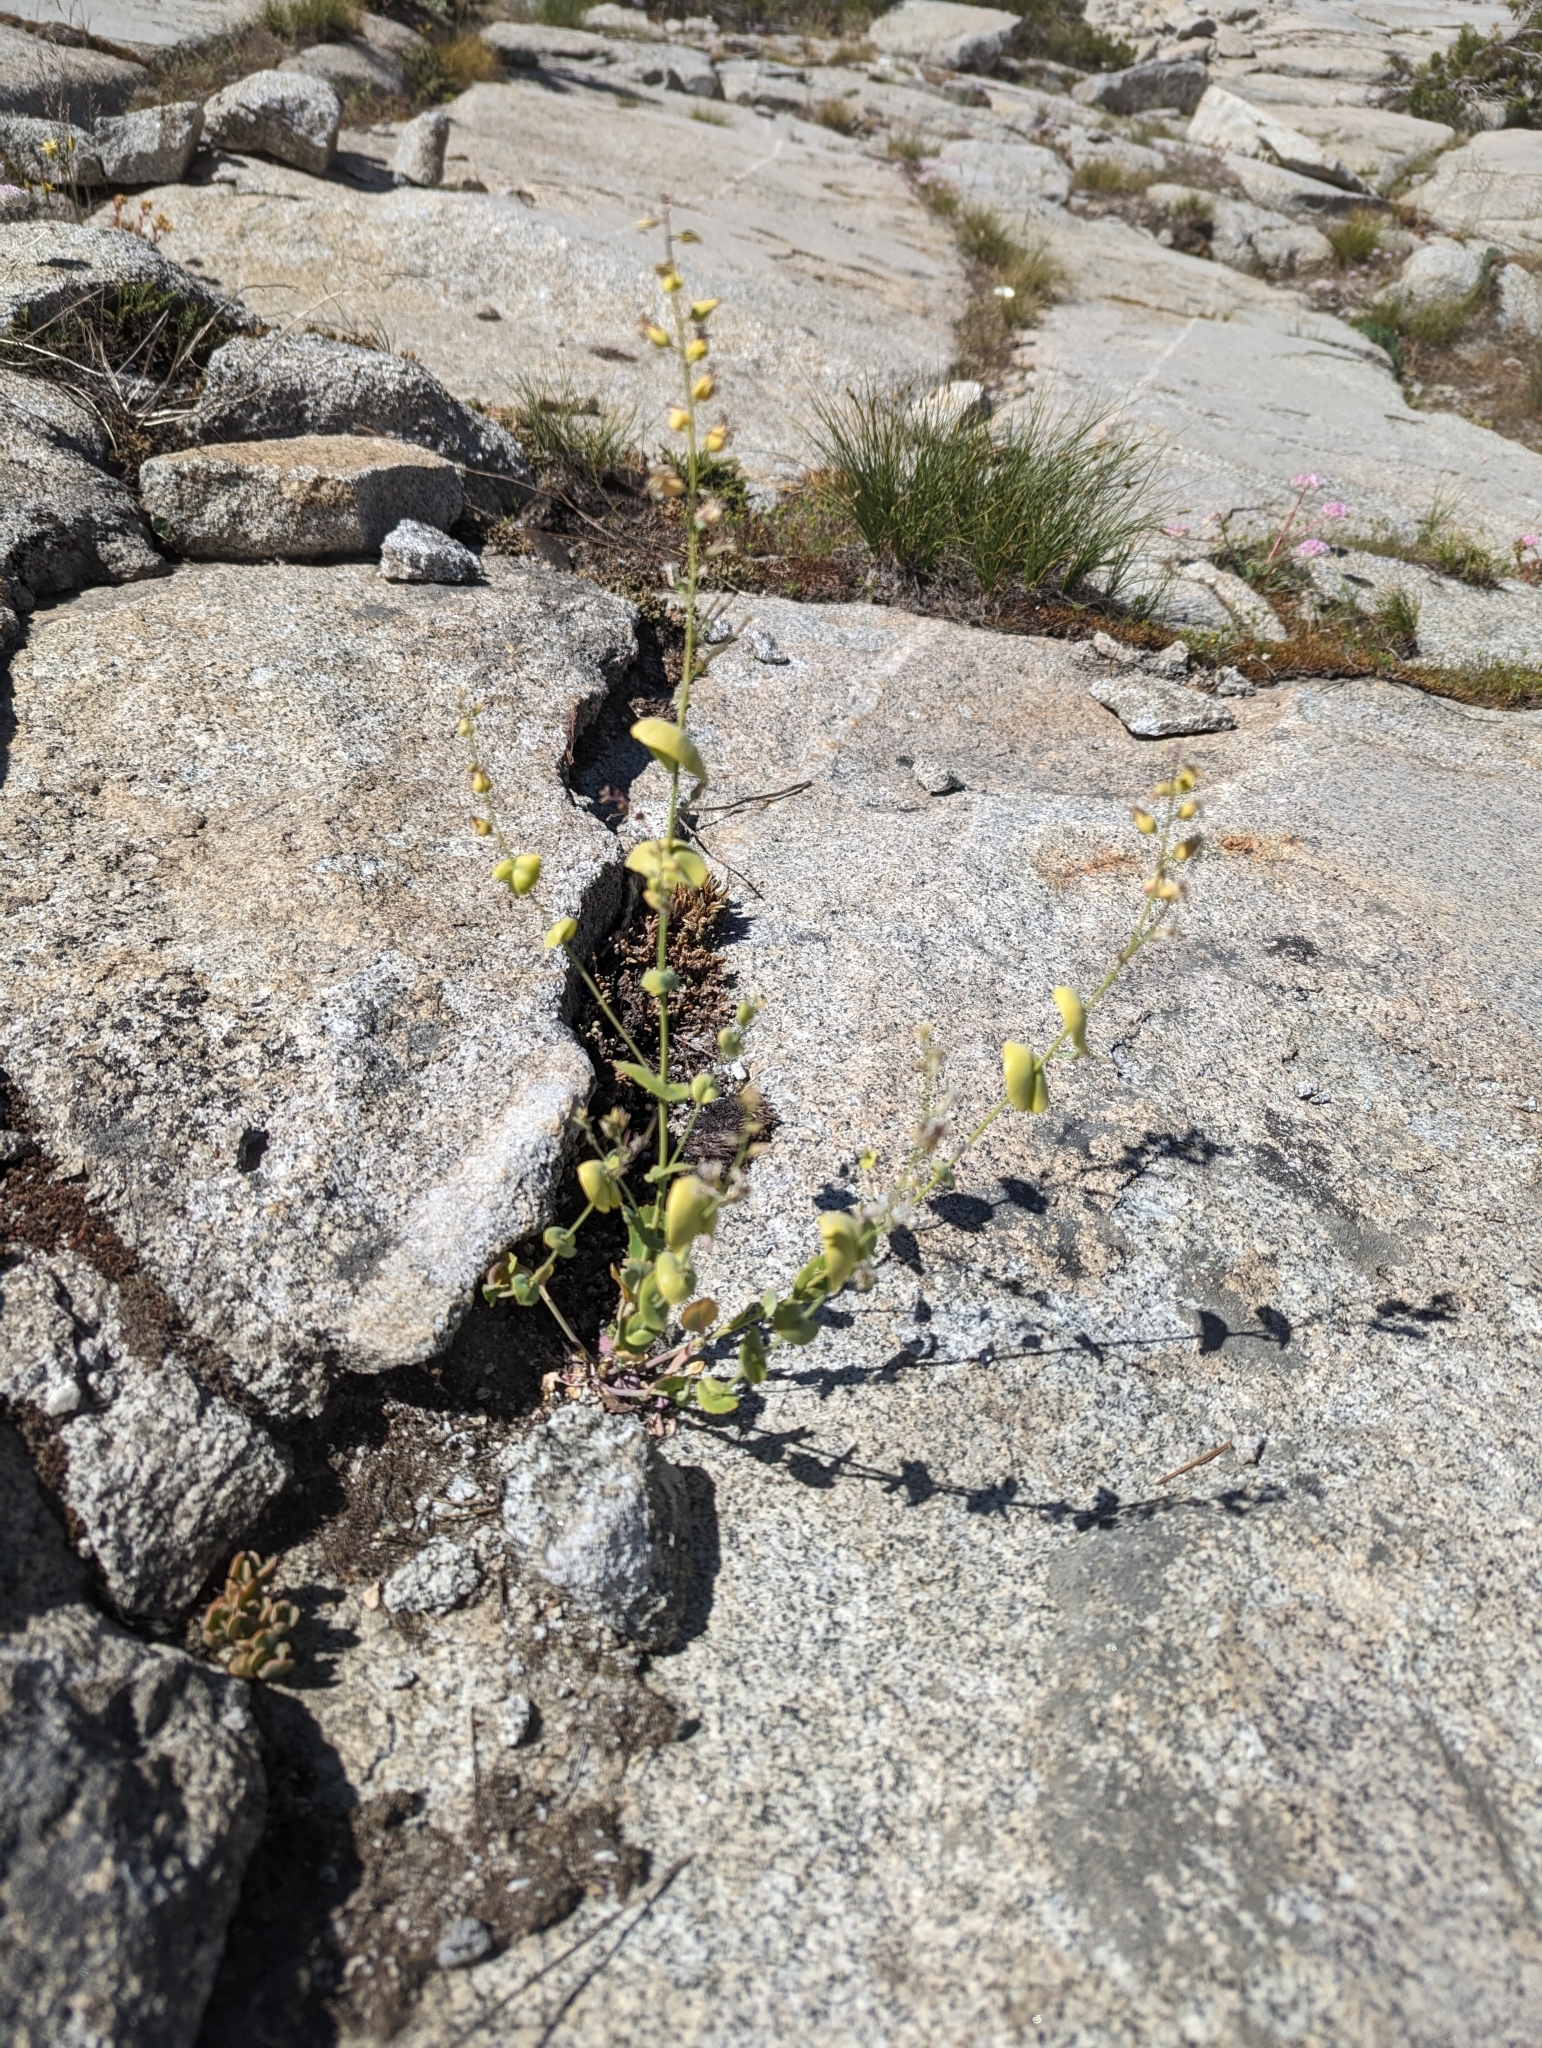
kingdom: Plantae
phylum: Tracheophyta
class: Magnoliopsida
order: Brassicales
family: Brassicaceae
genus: Streptanthus
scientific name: Streptanthus tortuosus
